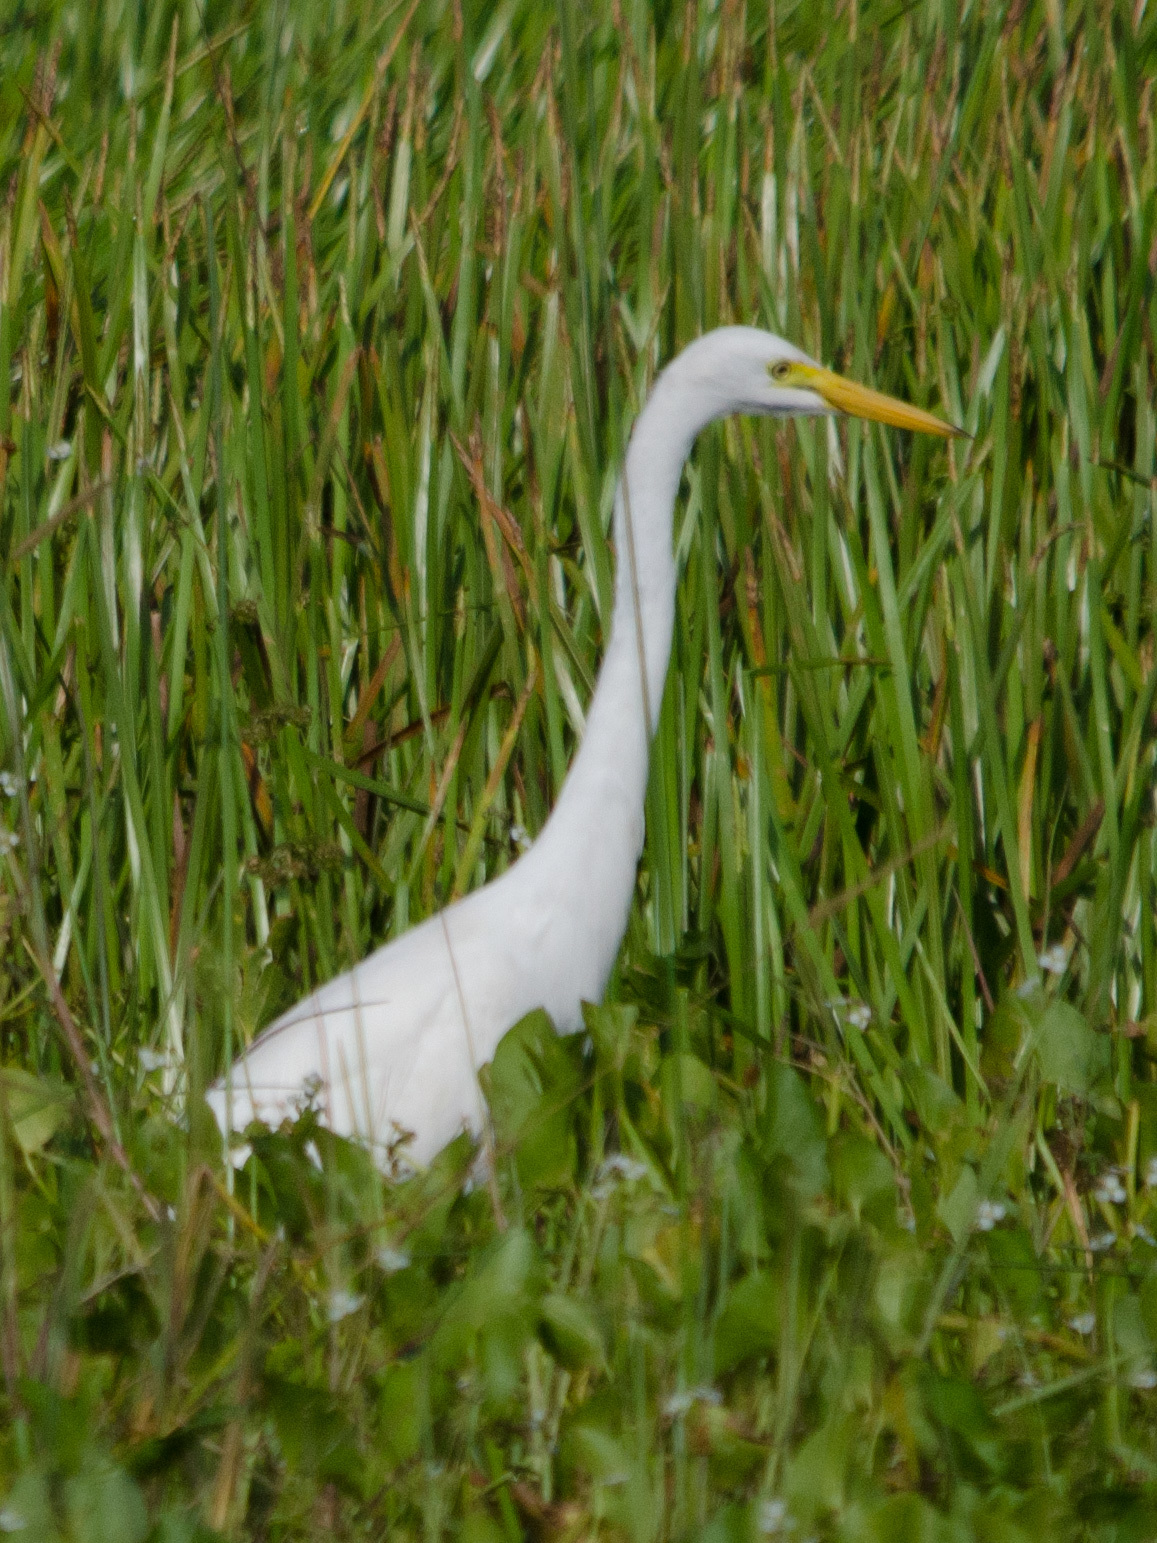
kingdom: Animalia
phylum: Chordata
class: Aves
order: Pelecaniformes
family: Ardeidae
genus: Ardea
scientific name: Ardea alba
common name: Great egret
